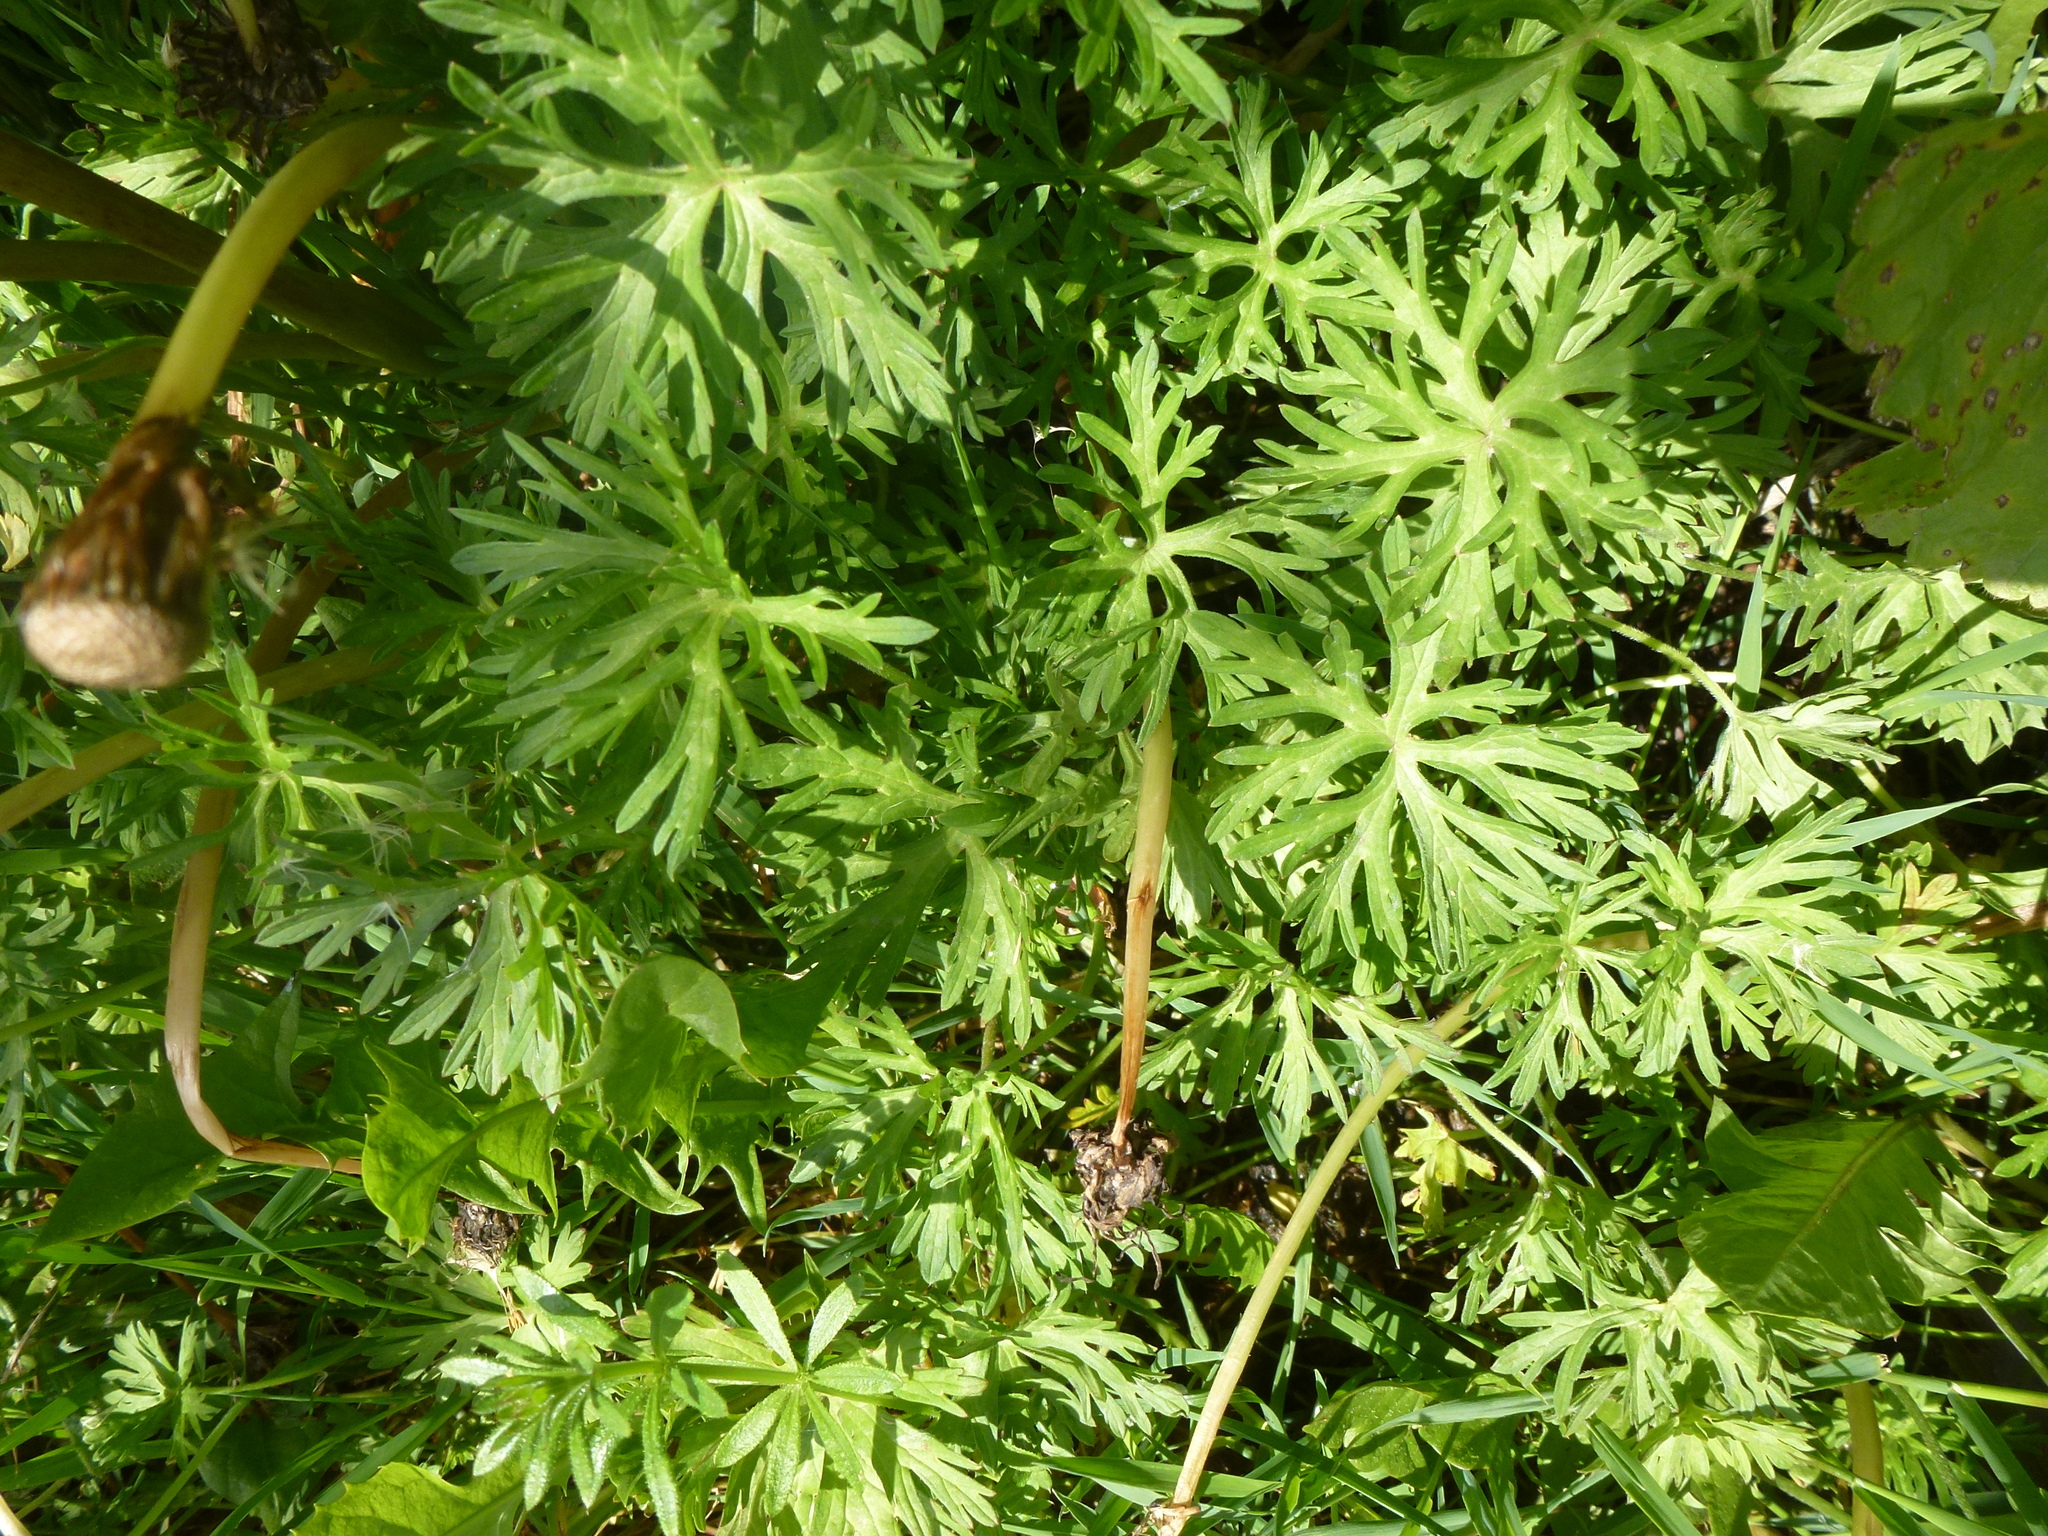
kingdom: Plantae
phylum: Tracheophyta
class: Magnoliopsida
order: Geraniales
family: Geraniaceae
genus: Geranium
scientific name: Geranium dissectum
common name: Cut-leaved crane's-bill
